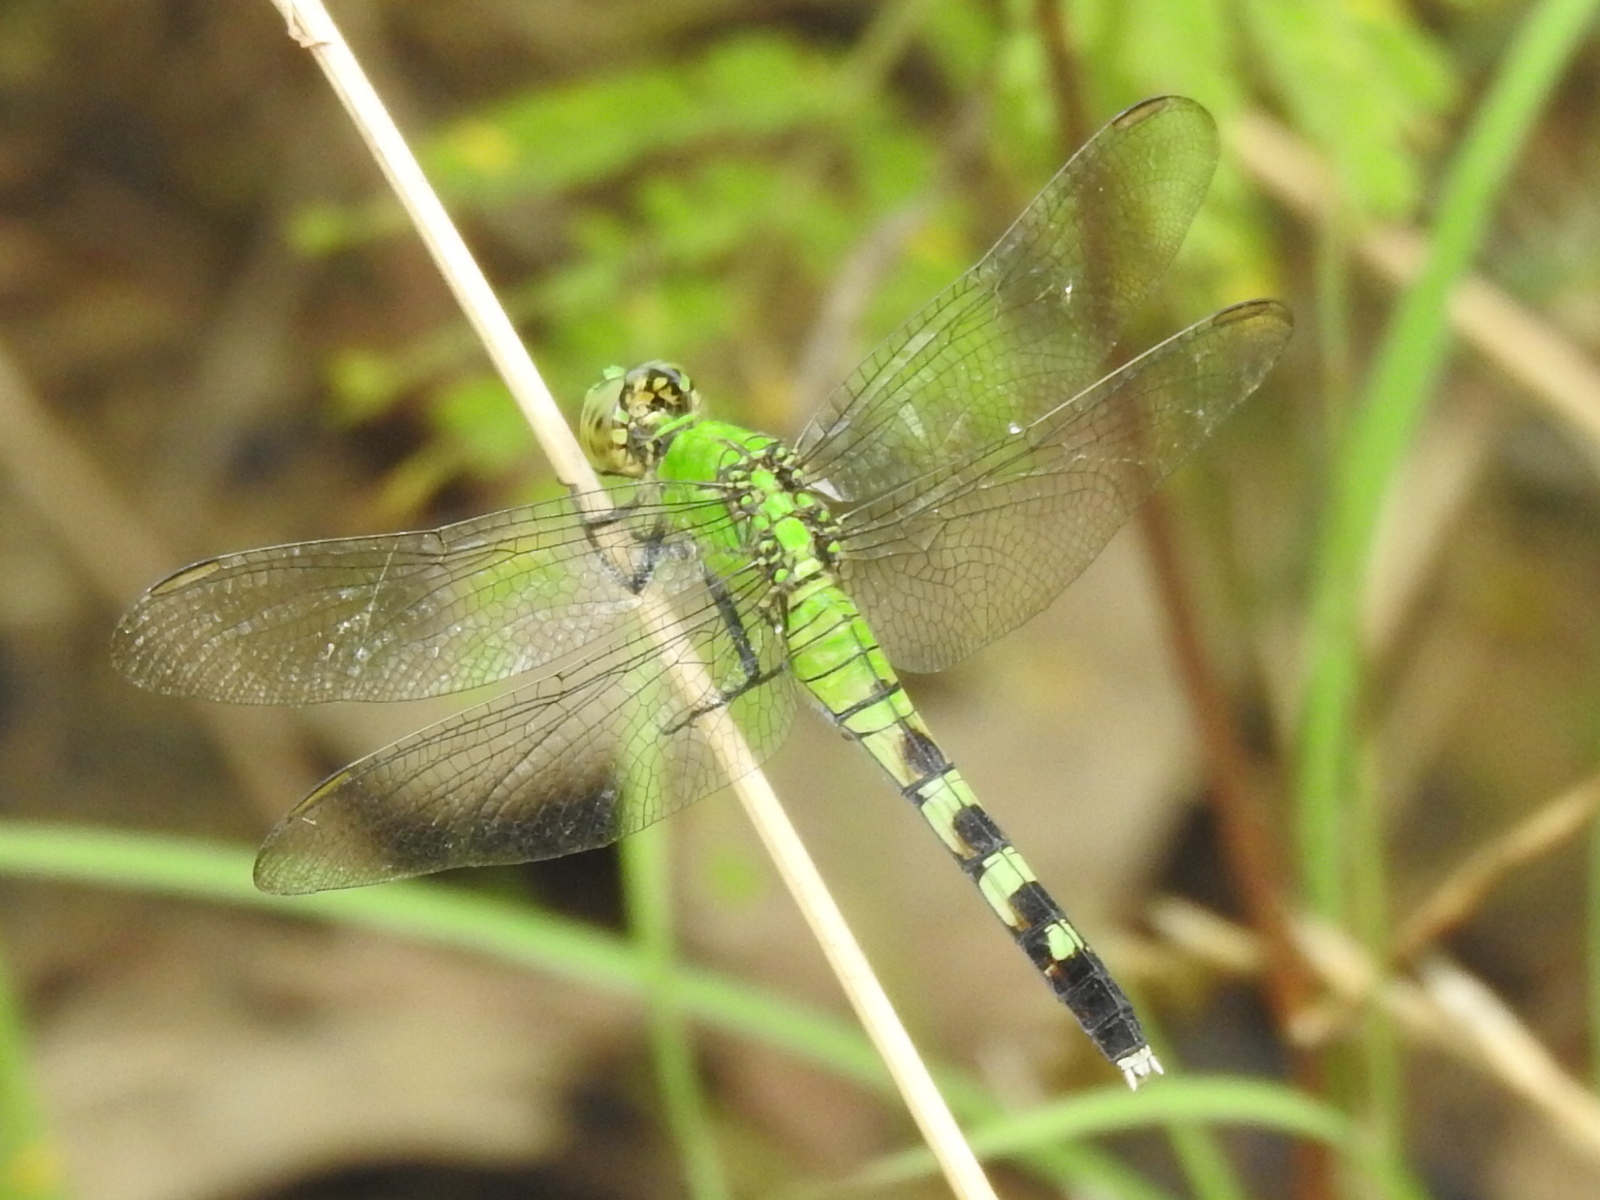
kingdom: Animalia
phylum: Arthropoda
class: Insecta
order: Odonata
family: Libellulidae
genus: Erythemis
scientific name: Erythemis simplicicollis
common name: Eastern pondhawk
